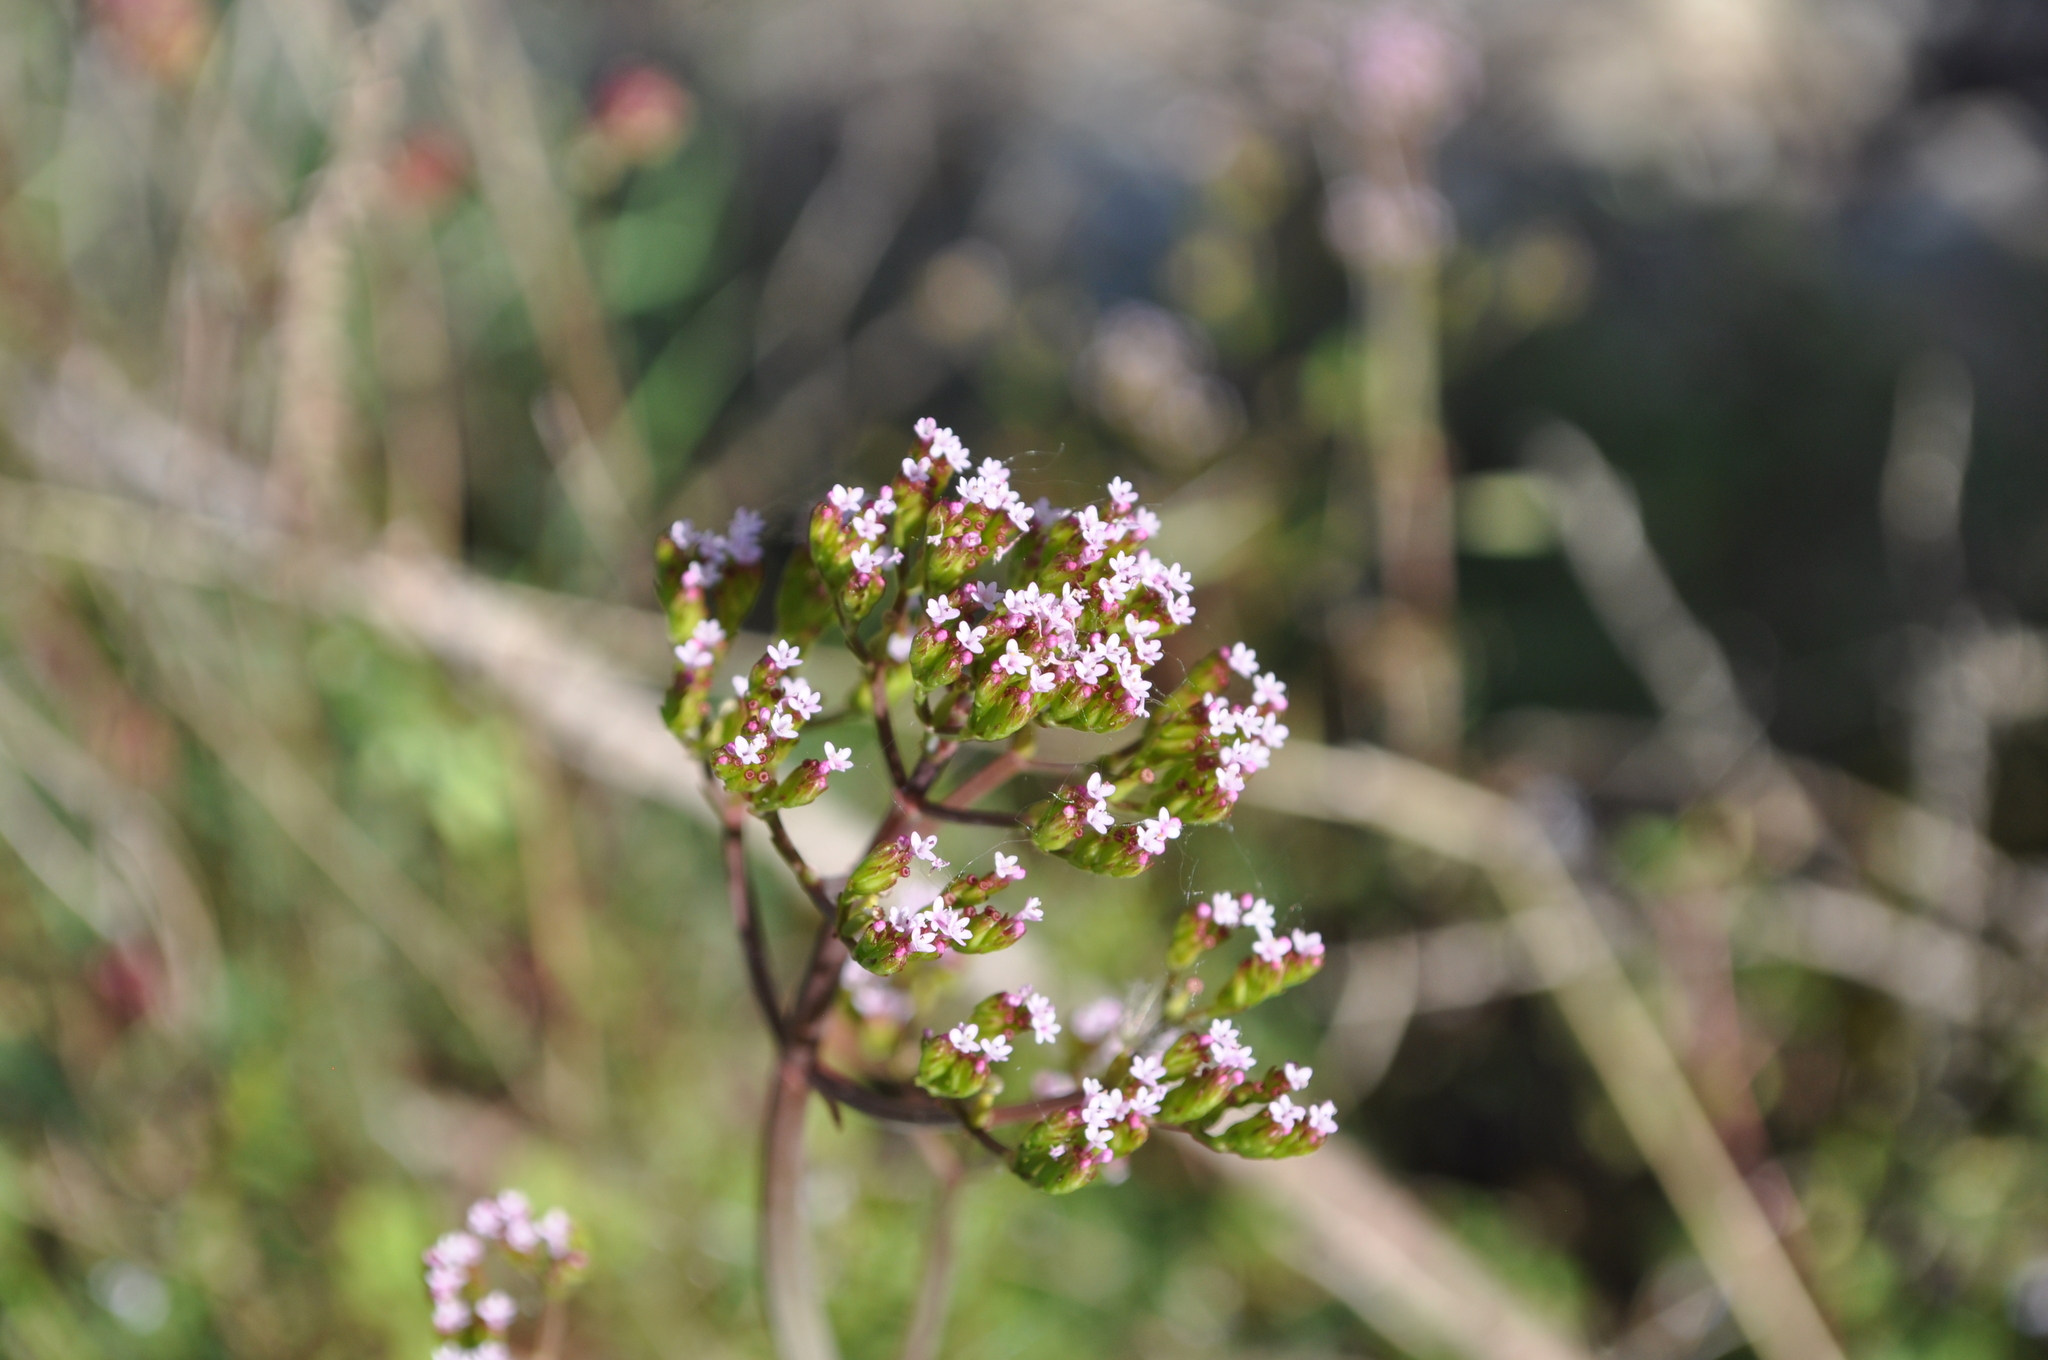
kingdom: Plantae
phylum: Tracheophyta
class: Magnoliopsida
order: Dipsacales
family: Caprifoliaceae
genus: Centranthus
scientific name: Centranthus calcitrapae
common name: Annual valerian
